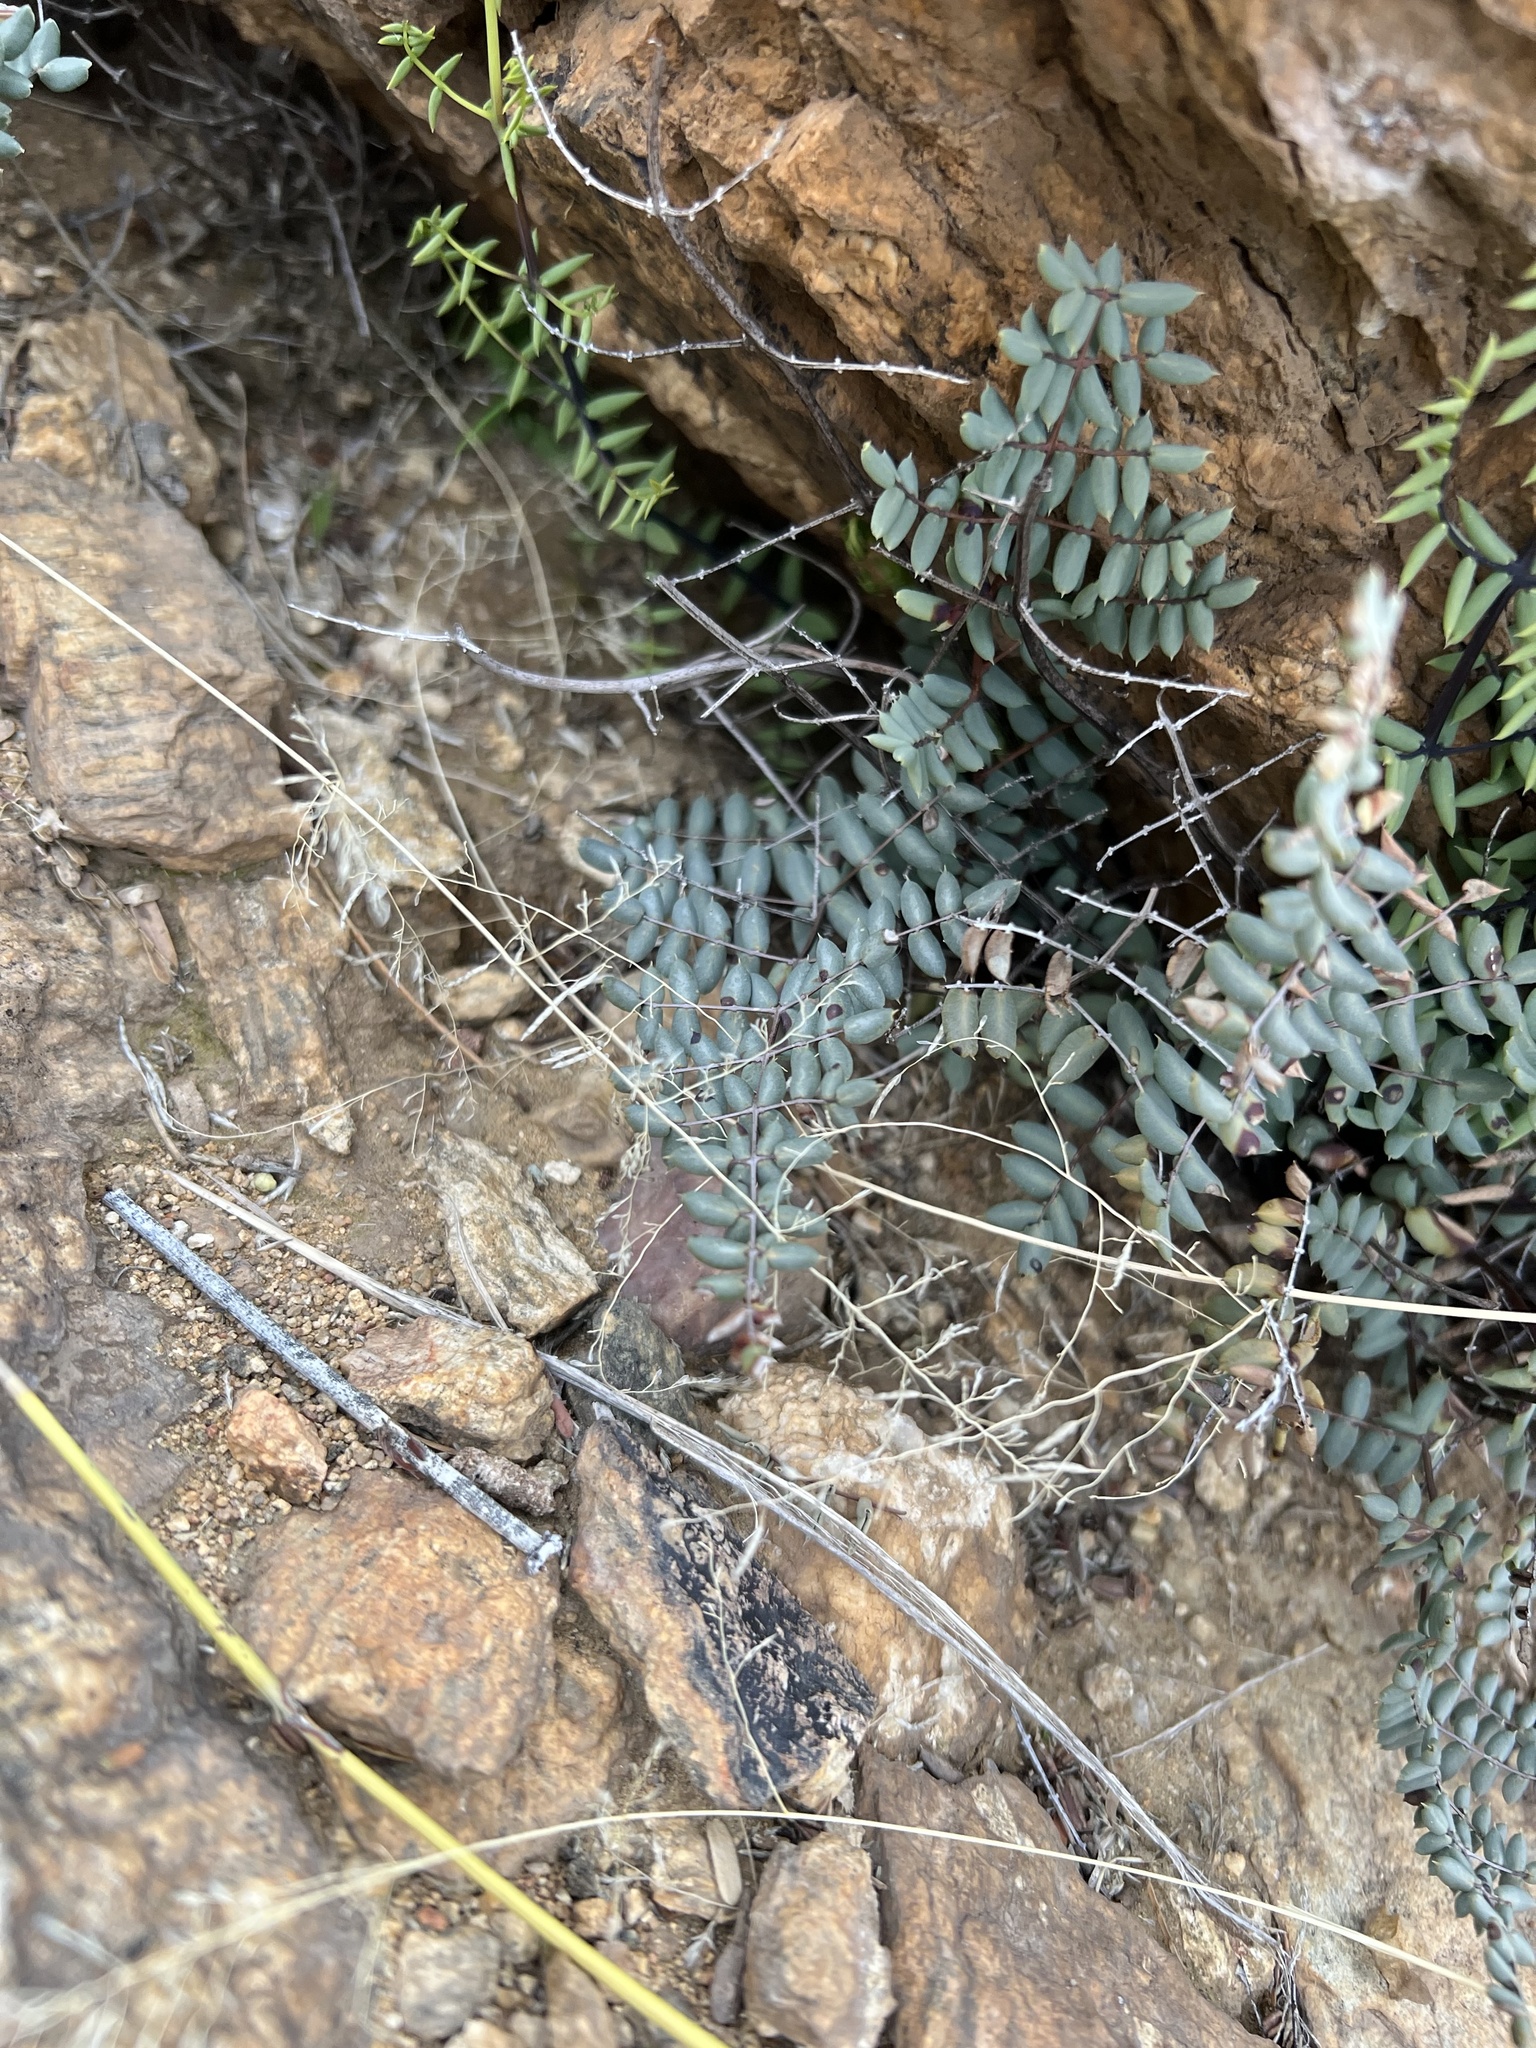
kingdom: Plantae
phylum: Tracheophyta
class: Polypodiopsida
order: Polypodiales
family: Pteridaceae
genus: Pellaea
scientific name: Pellaea truncata
